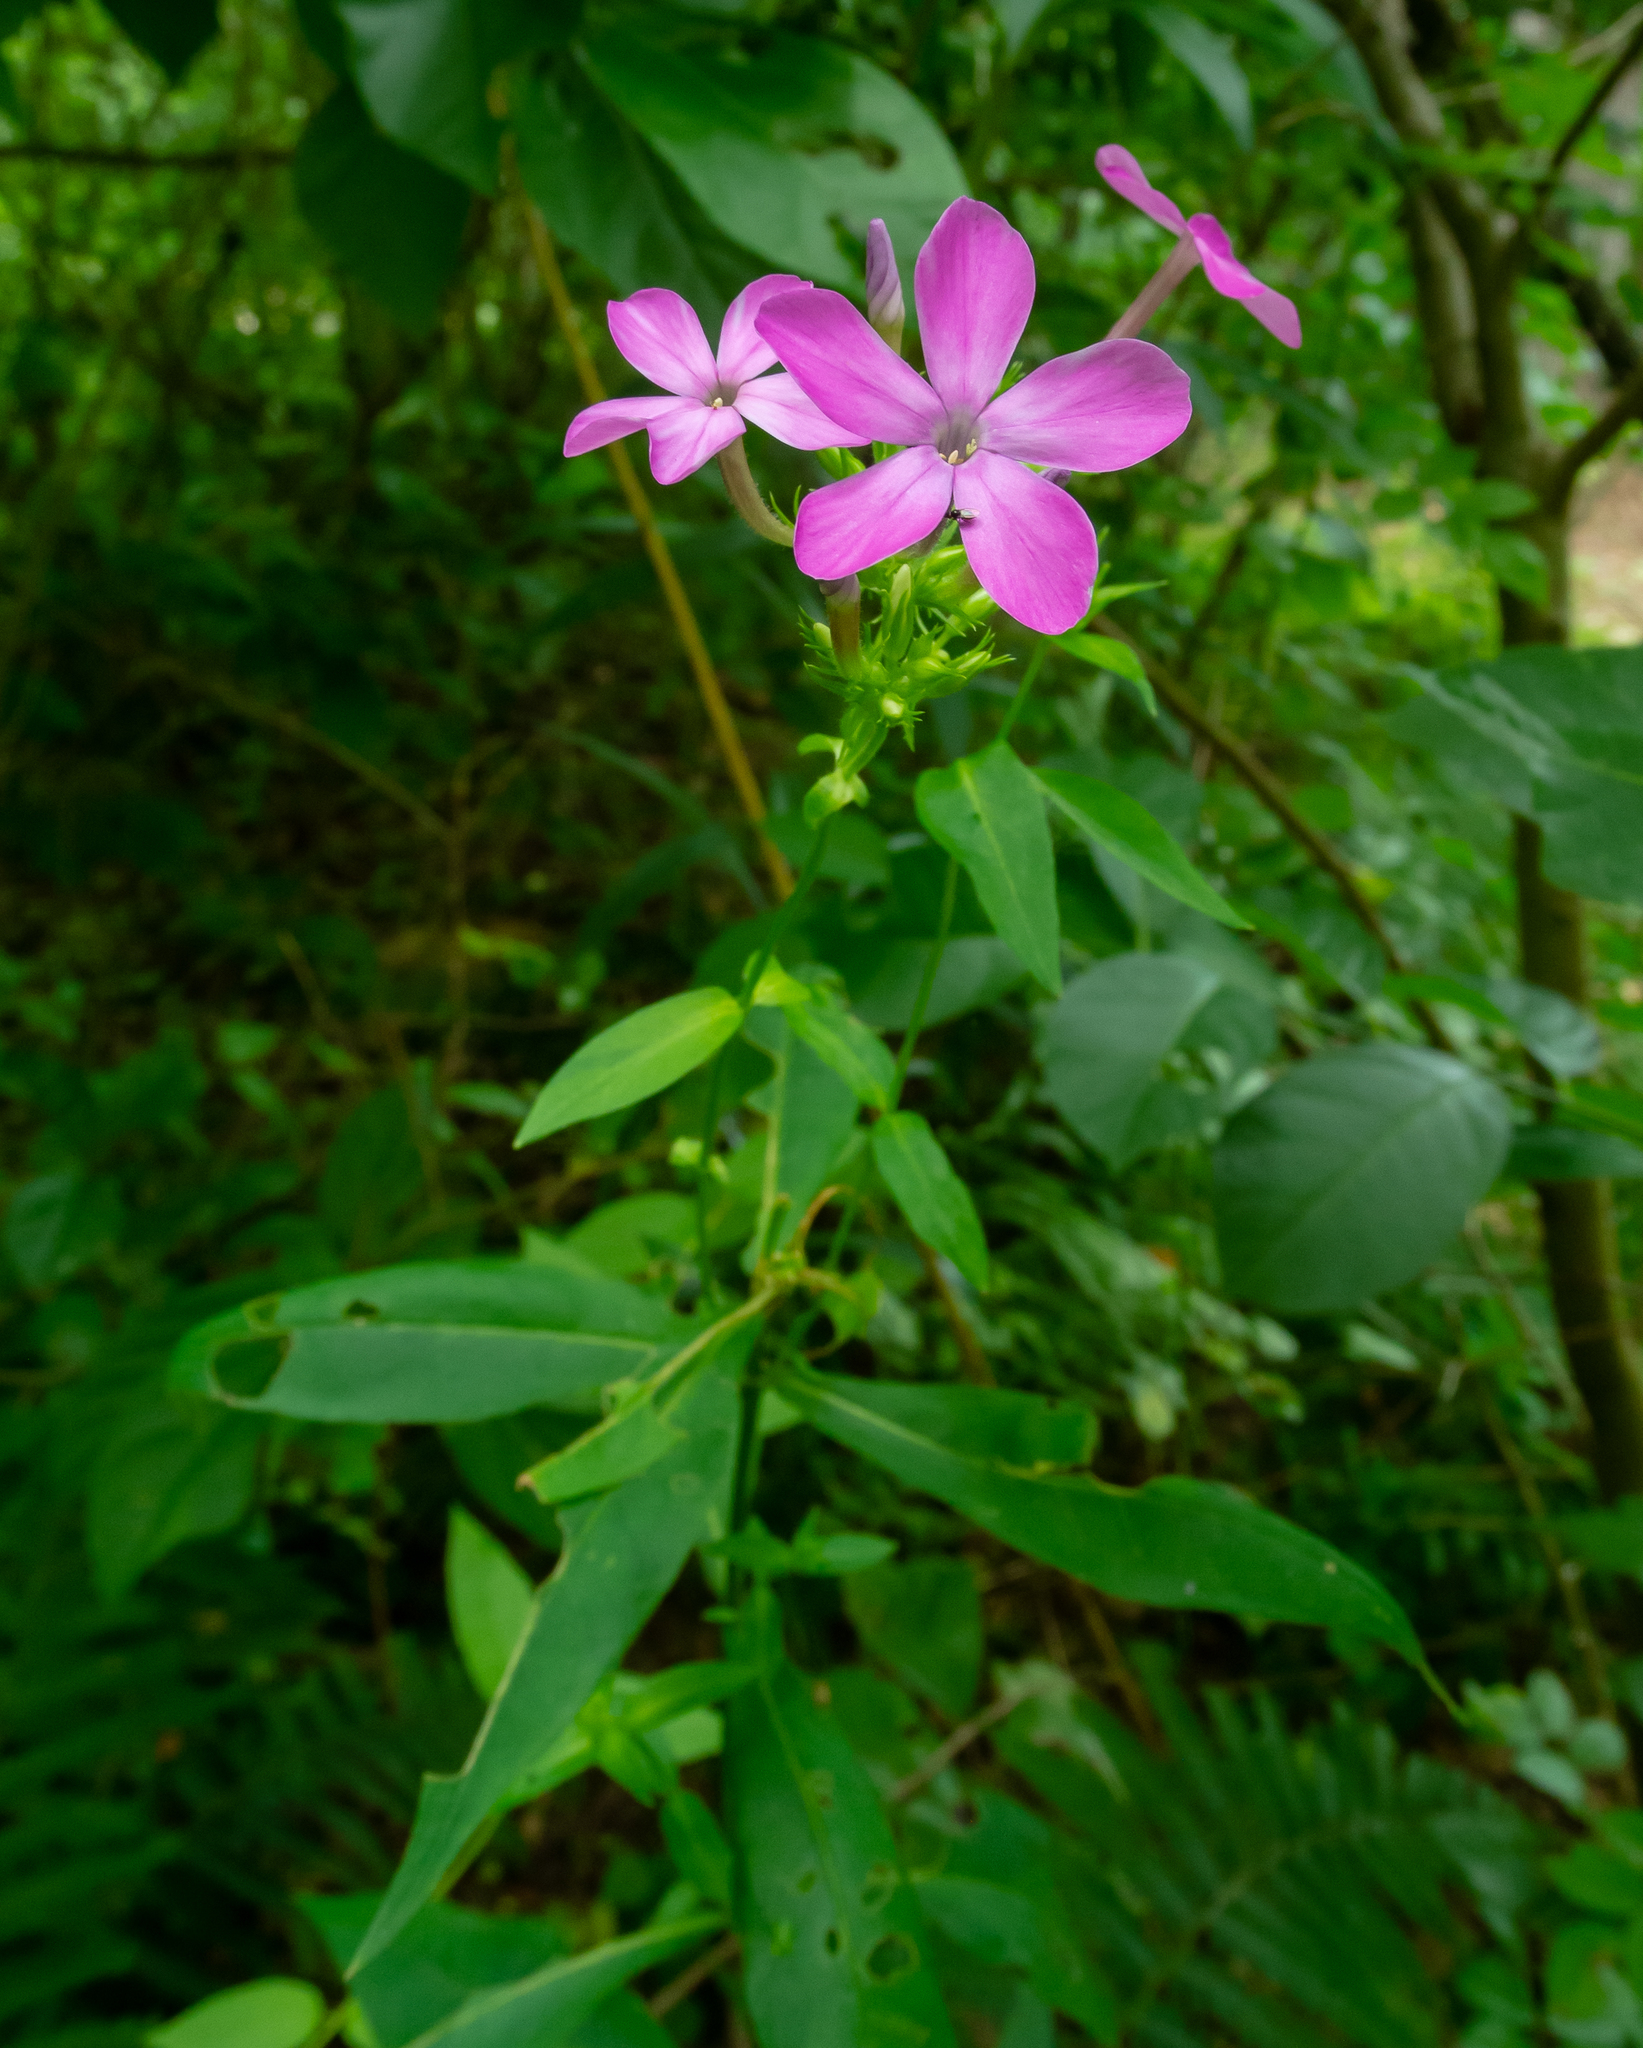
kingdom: Plantae
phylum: Tracheophyta
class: Magnoliopsida
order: Ericales
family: Polemoniaceae
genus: Phlox
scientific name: Phlox paniculata
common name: Fall phlox
